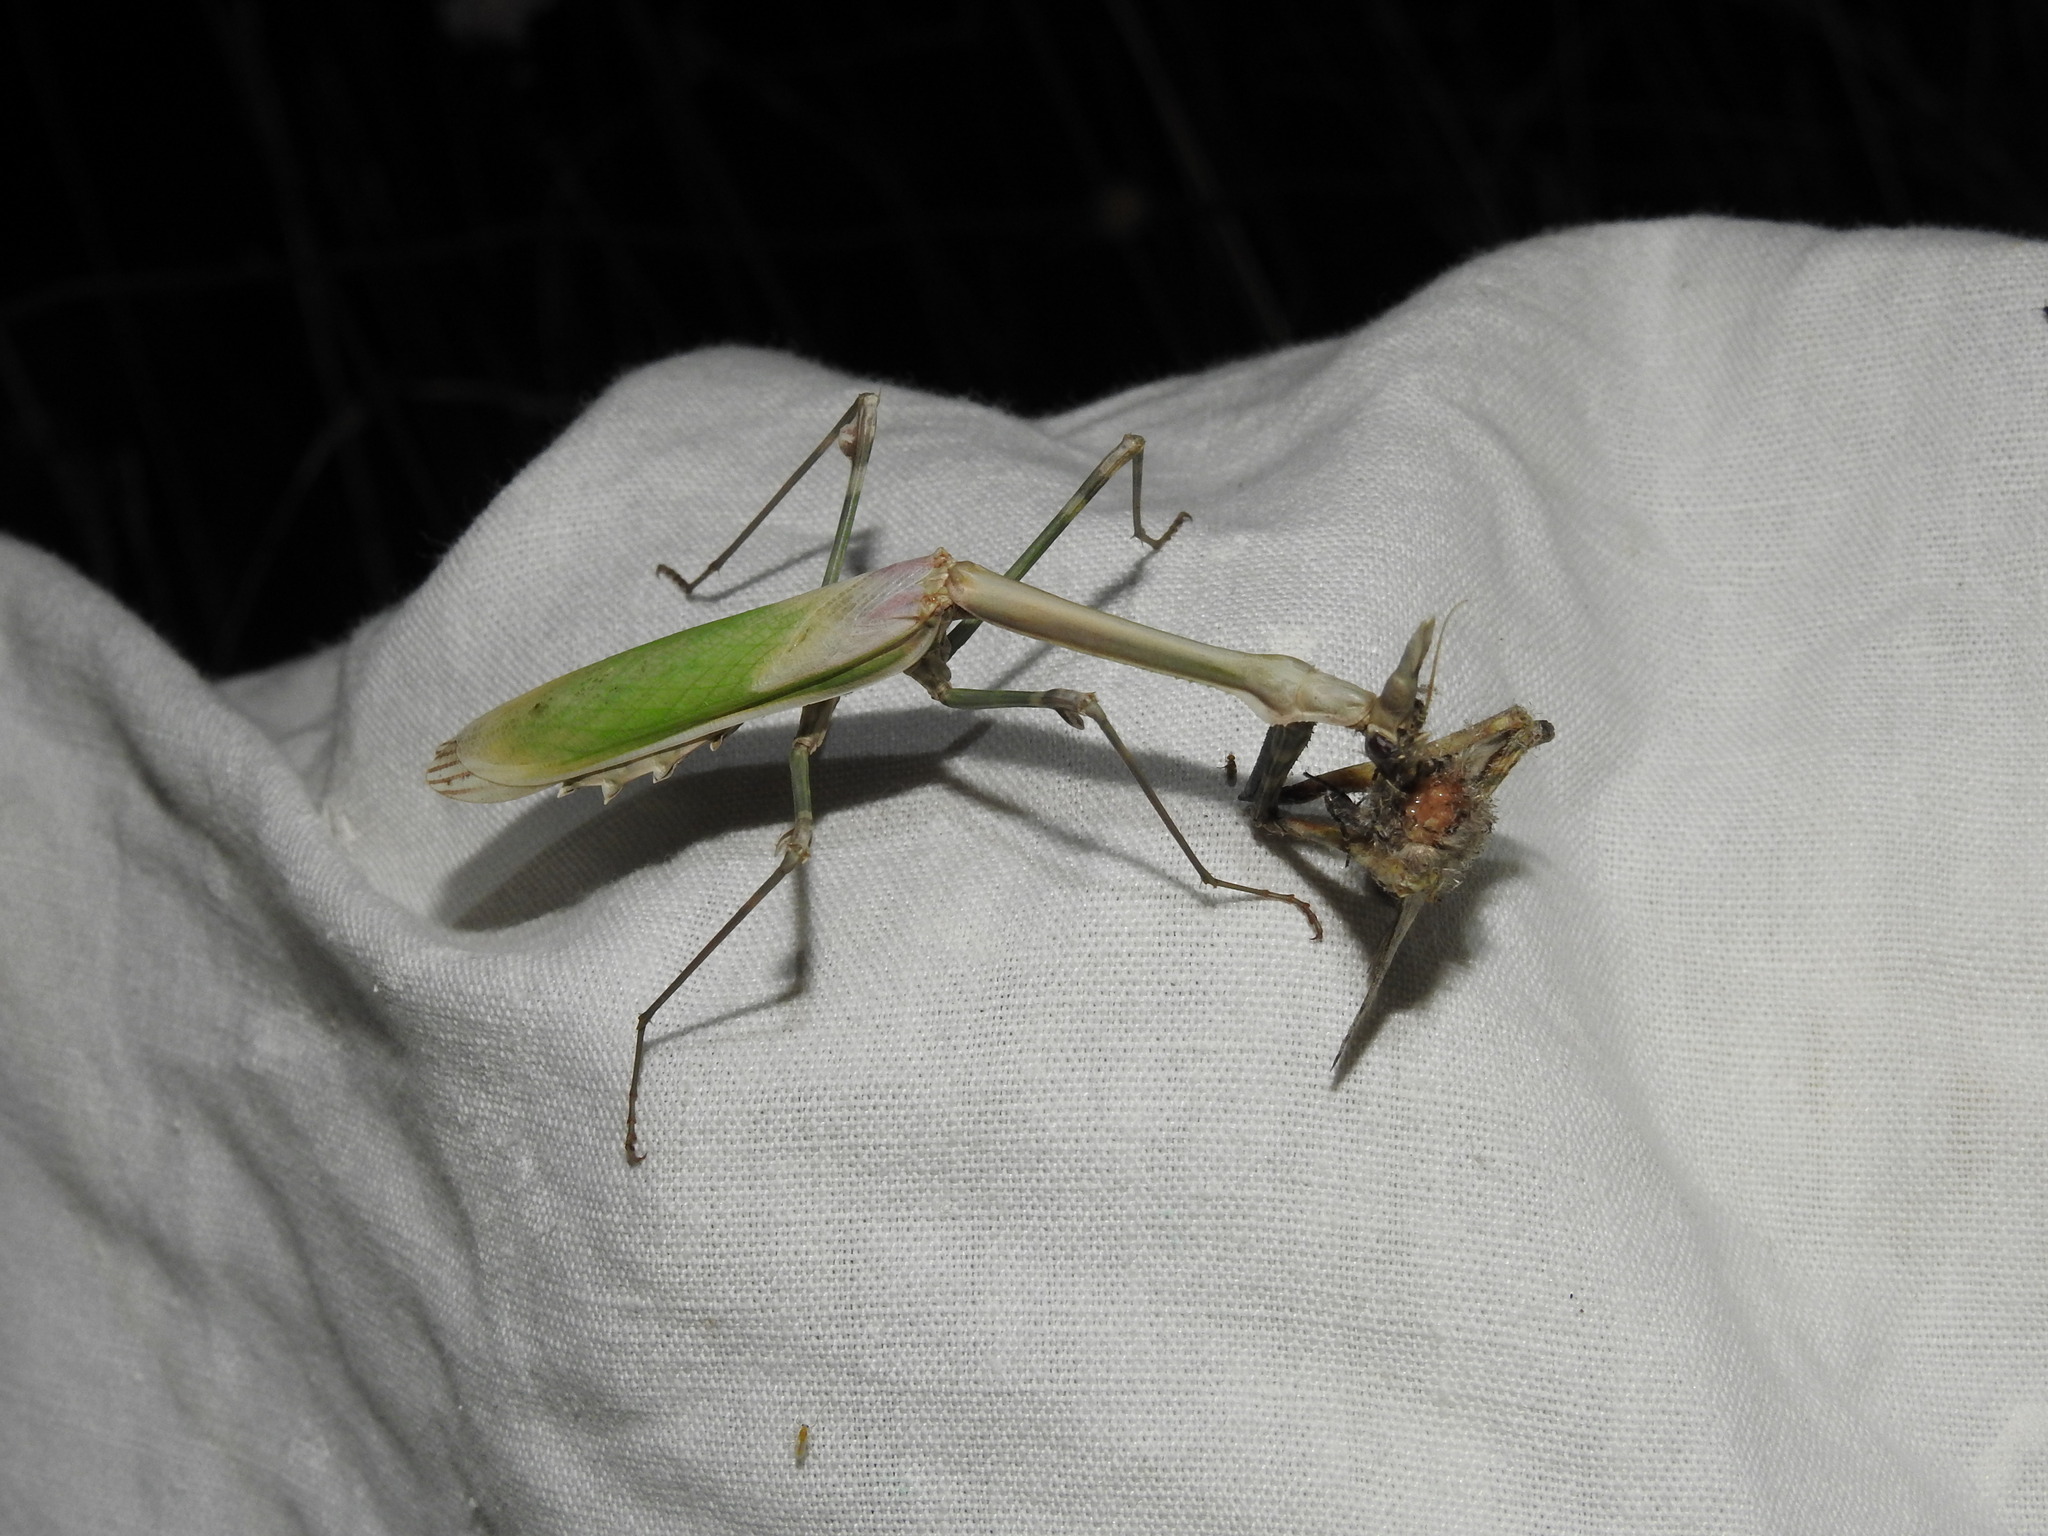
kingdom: Animalia
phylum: Arthropoda
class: Insecta
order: Mantodea
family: Empusidae
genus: Empusa
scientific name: Empusa pennata
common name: Conehead mantis
